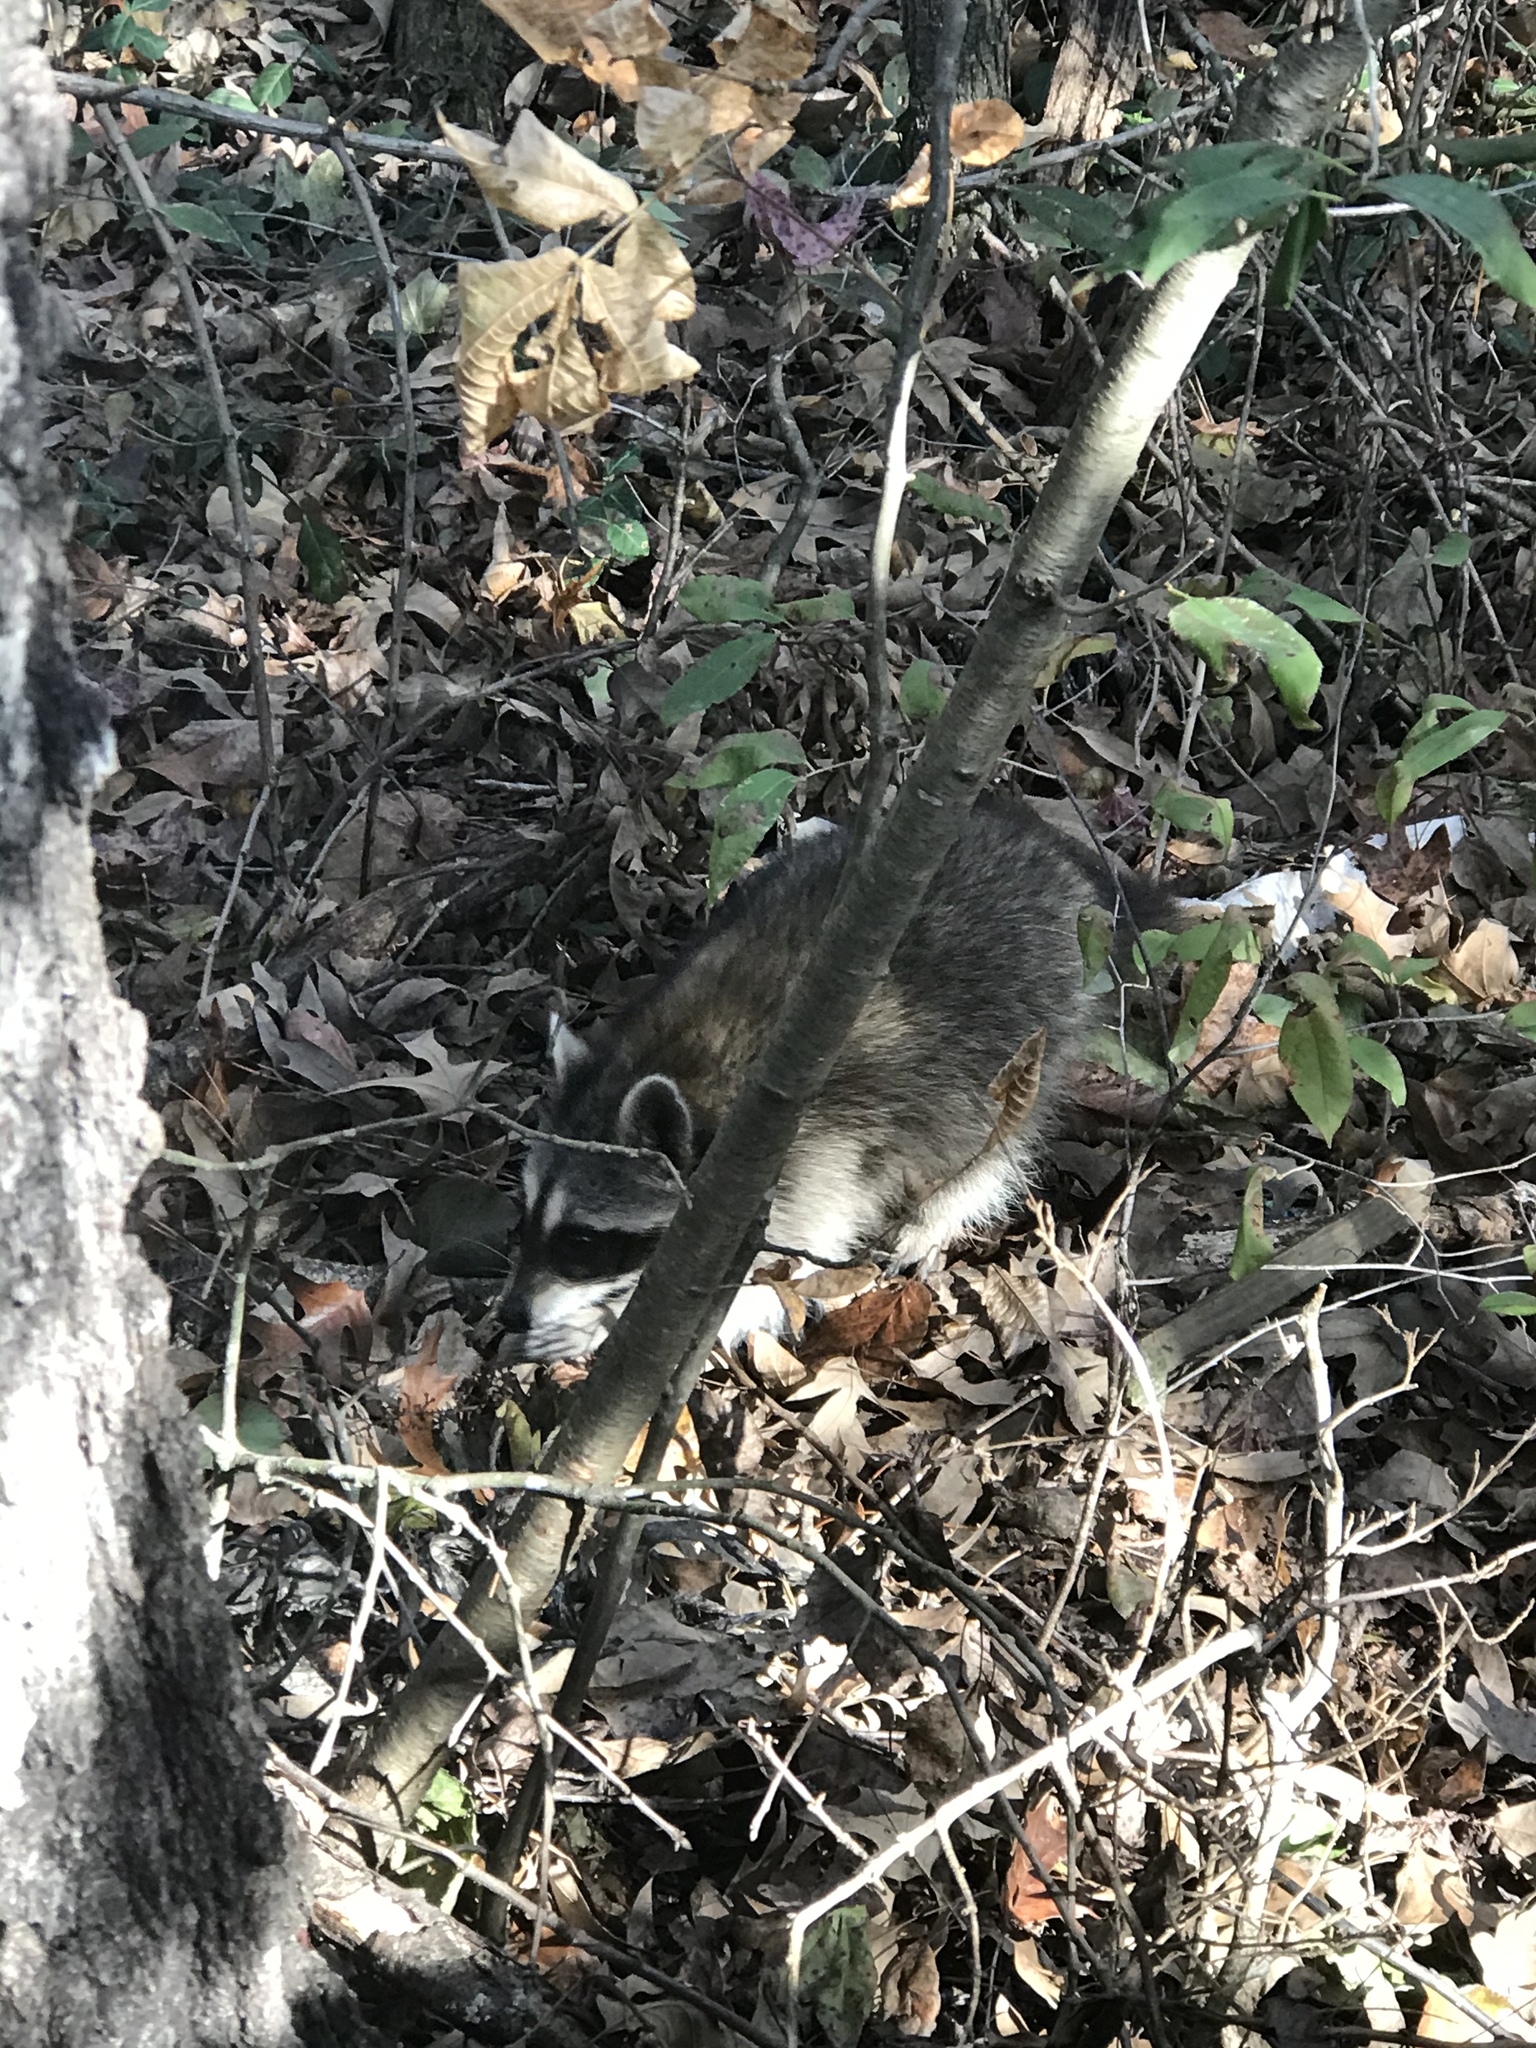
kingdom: Animalia
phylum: Chordata
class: Mammalia
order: Carnivora
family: Procyonidae
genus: Procyon
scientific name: Procyon lotor
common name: Raccoon
